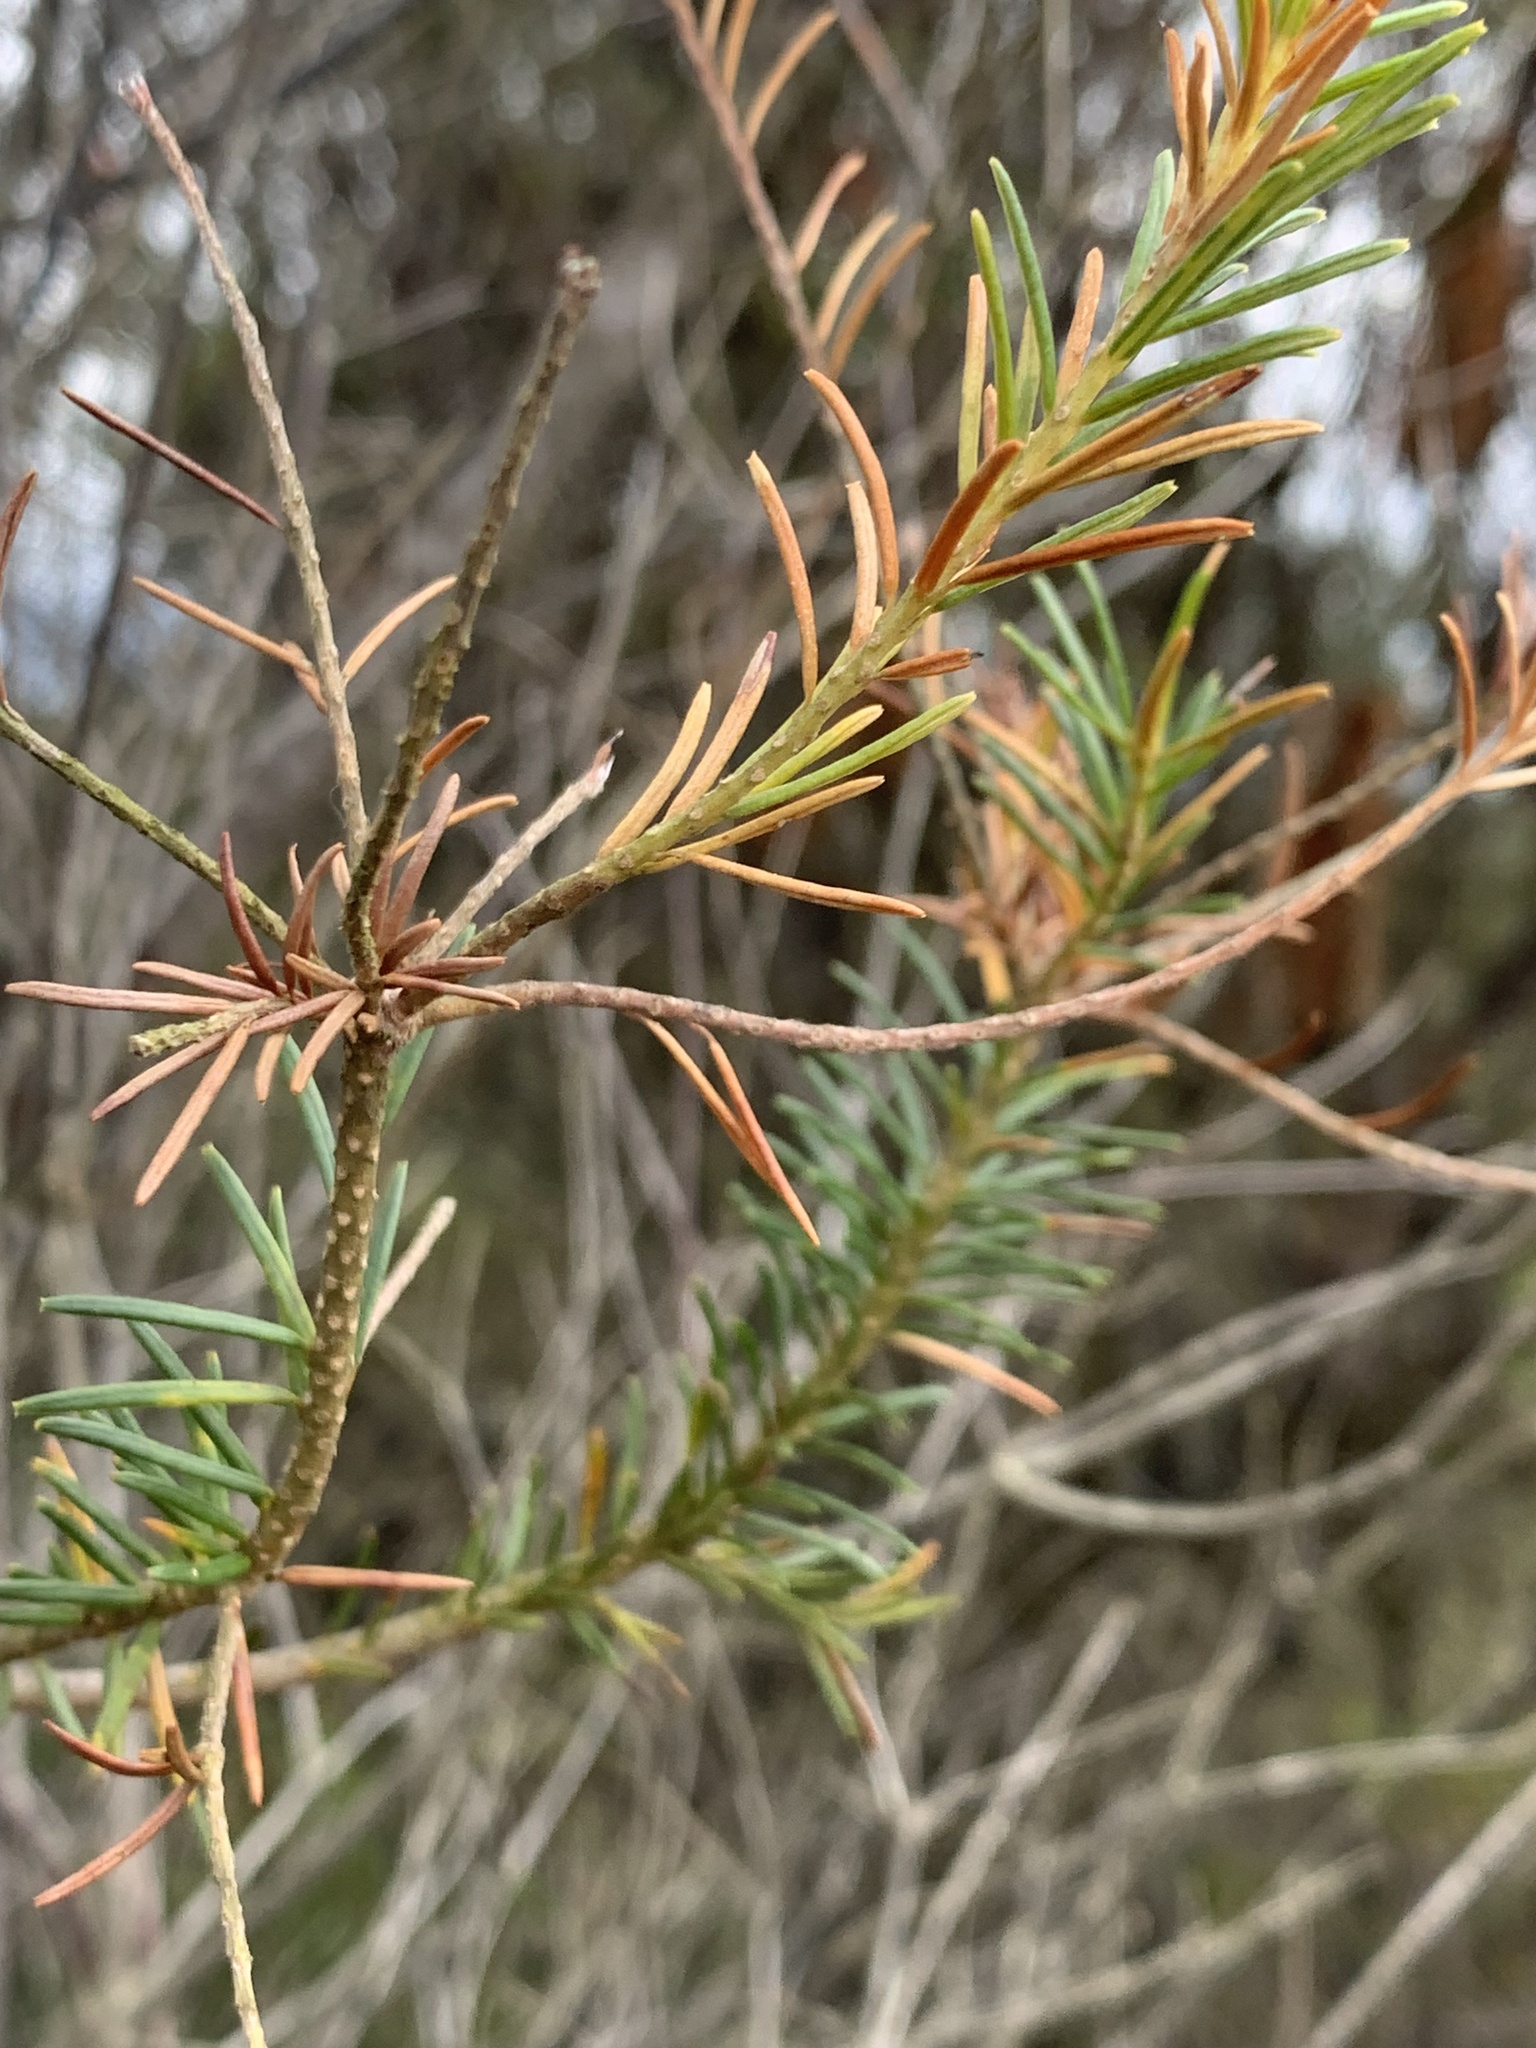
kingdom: Plantae
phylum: Tracheophyta
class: Magnoliopsida
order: Proteales
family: Proteaceae
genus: Banksia
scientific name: Banksia ericifolia
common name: Heath-leaf banksia
